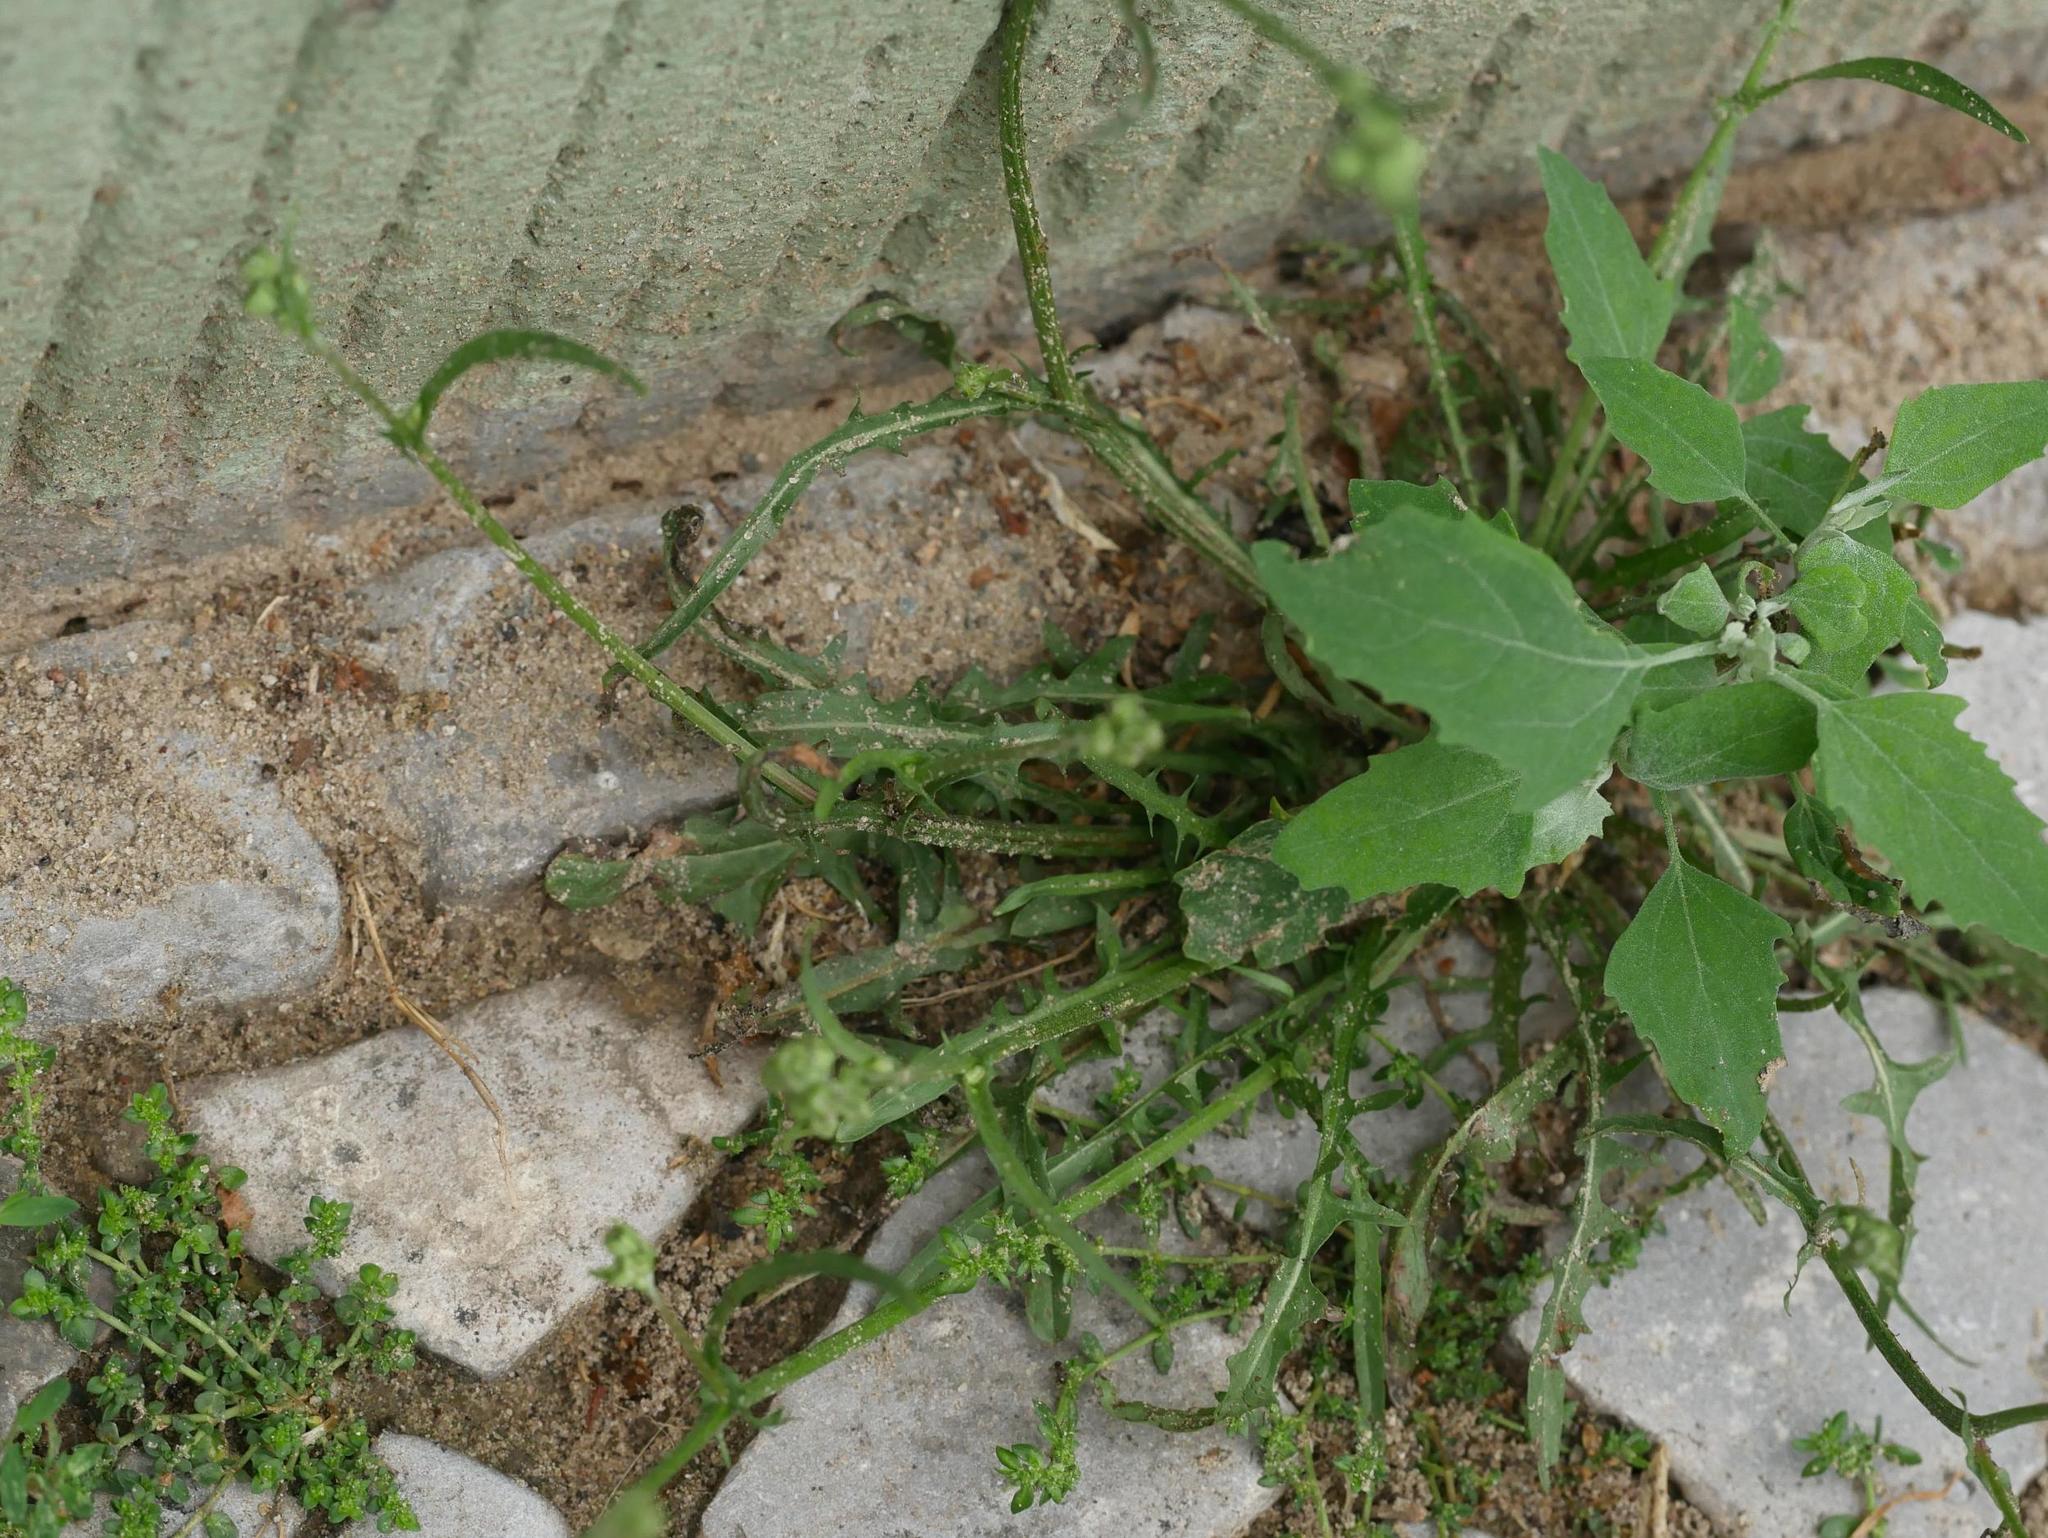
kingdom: Plantae
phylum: Tracheophyta
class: Magnoliopsida
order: Caryophyllales
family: Amaranthaceae
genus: Chenopodium
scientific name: Chenopodium album
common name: Fat-hen
